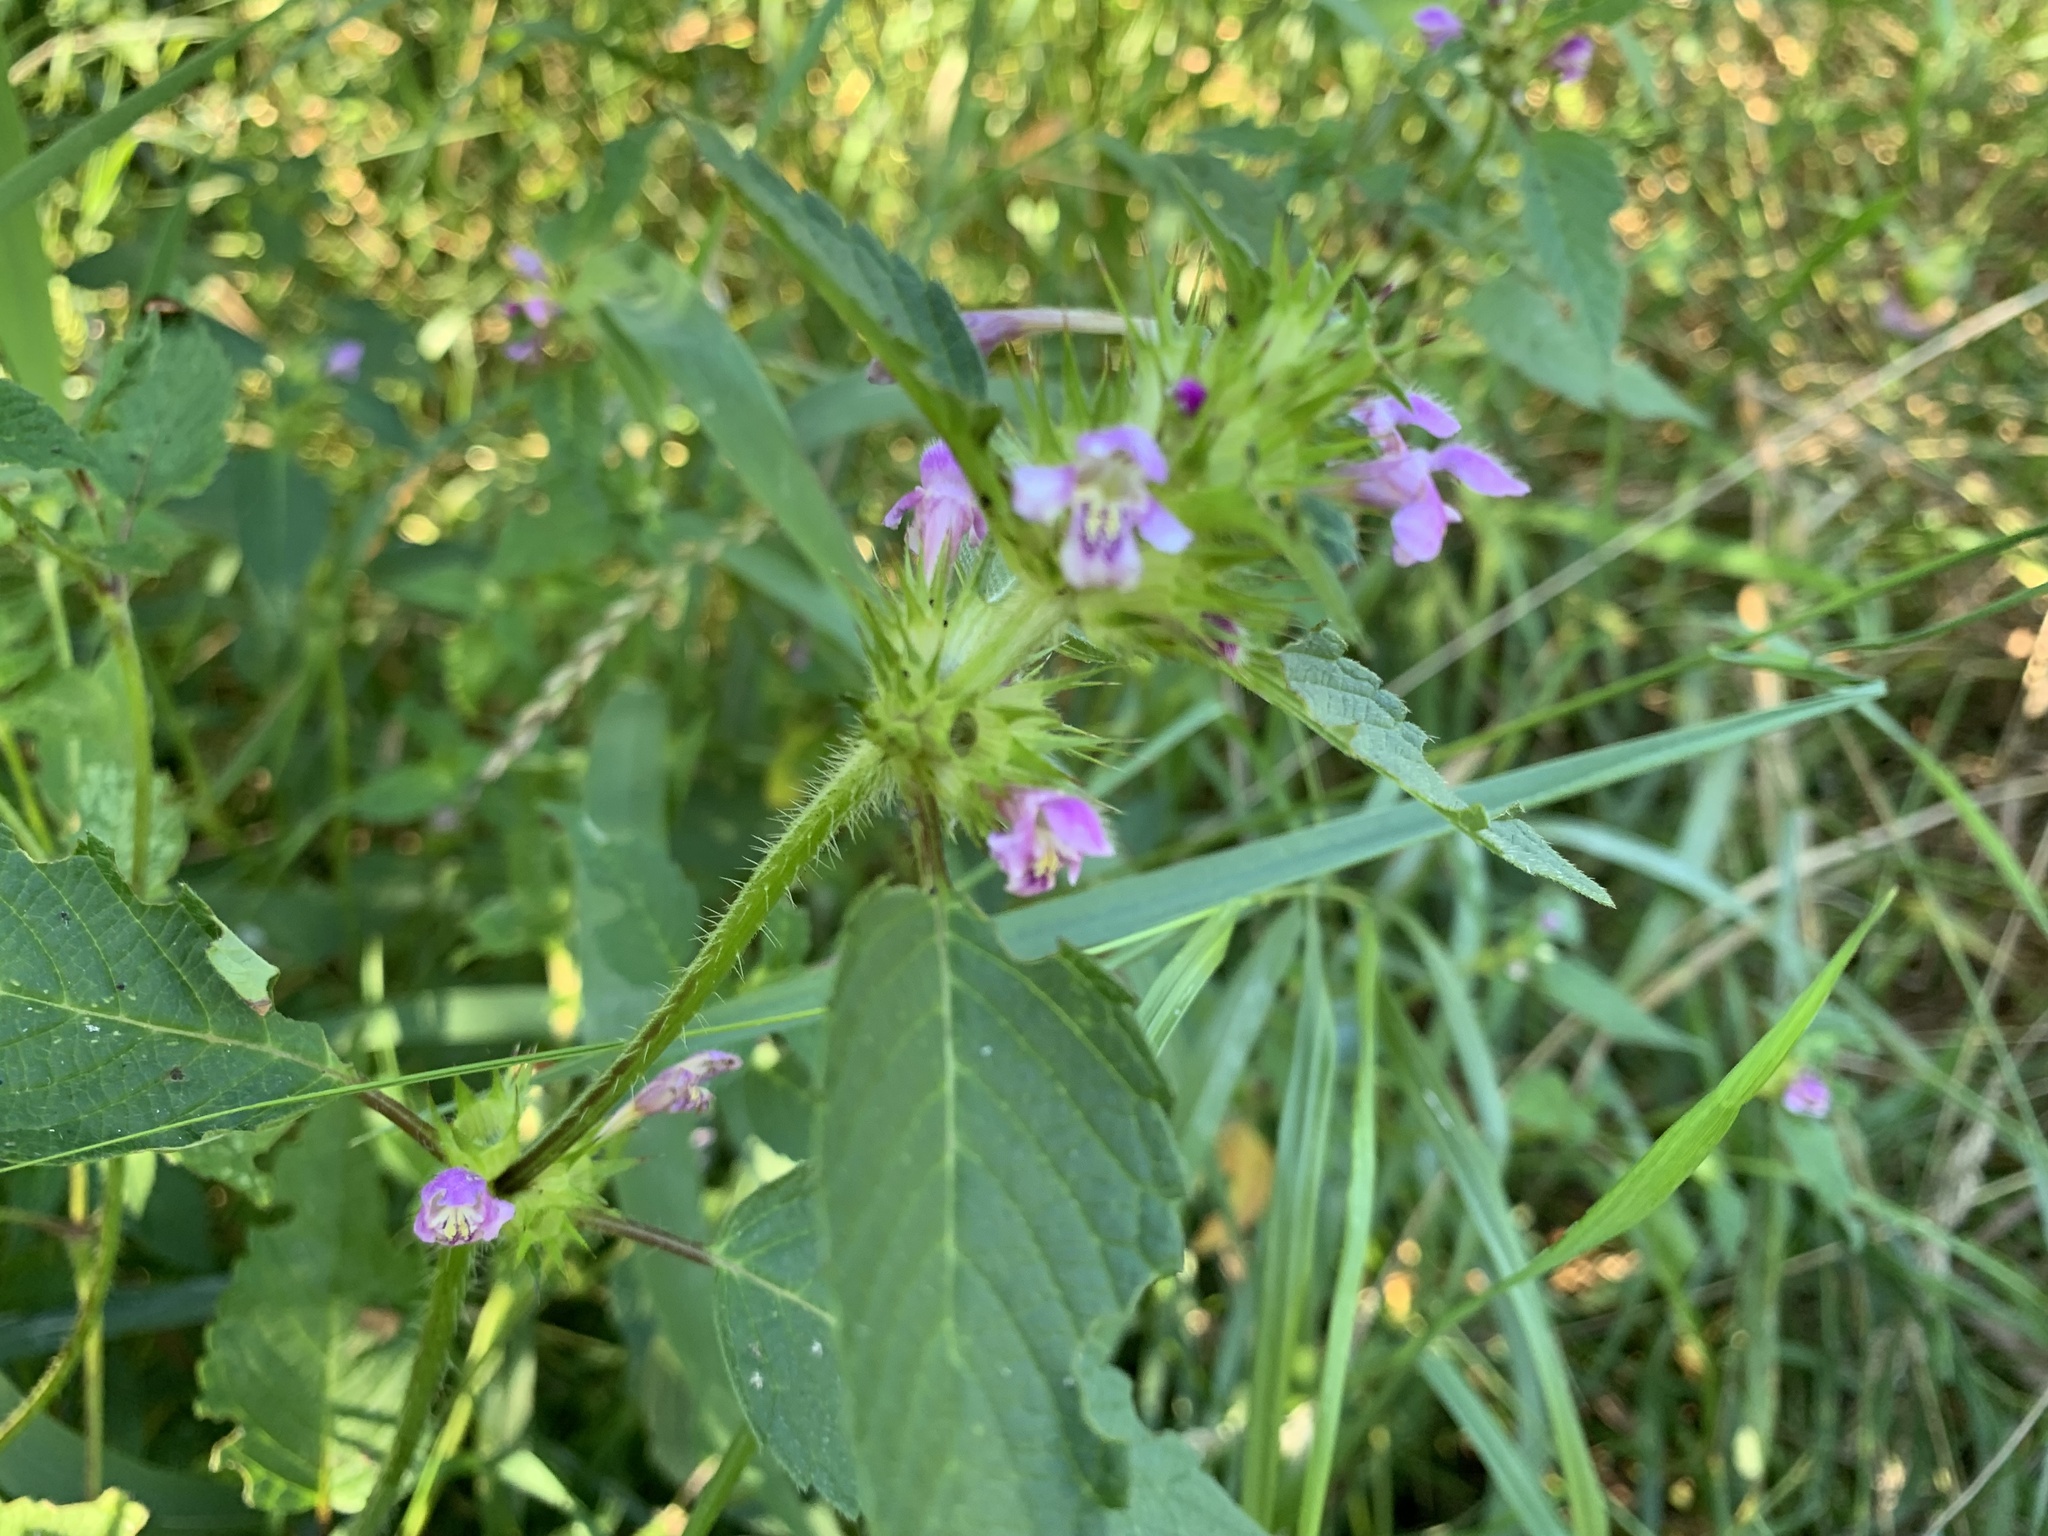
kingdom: Plantae
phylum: Tracheophyta
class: Magnoliopsida
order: Lamiales
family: Lamiaceae
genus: Galeopsis
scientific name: Galeopsis tetrahit
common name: Common hemp-nettle
